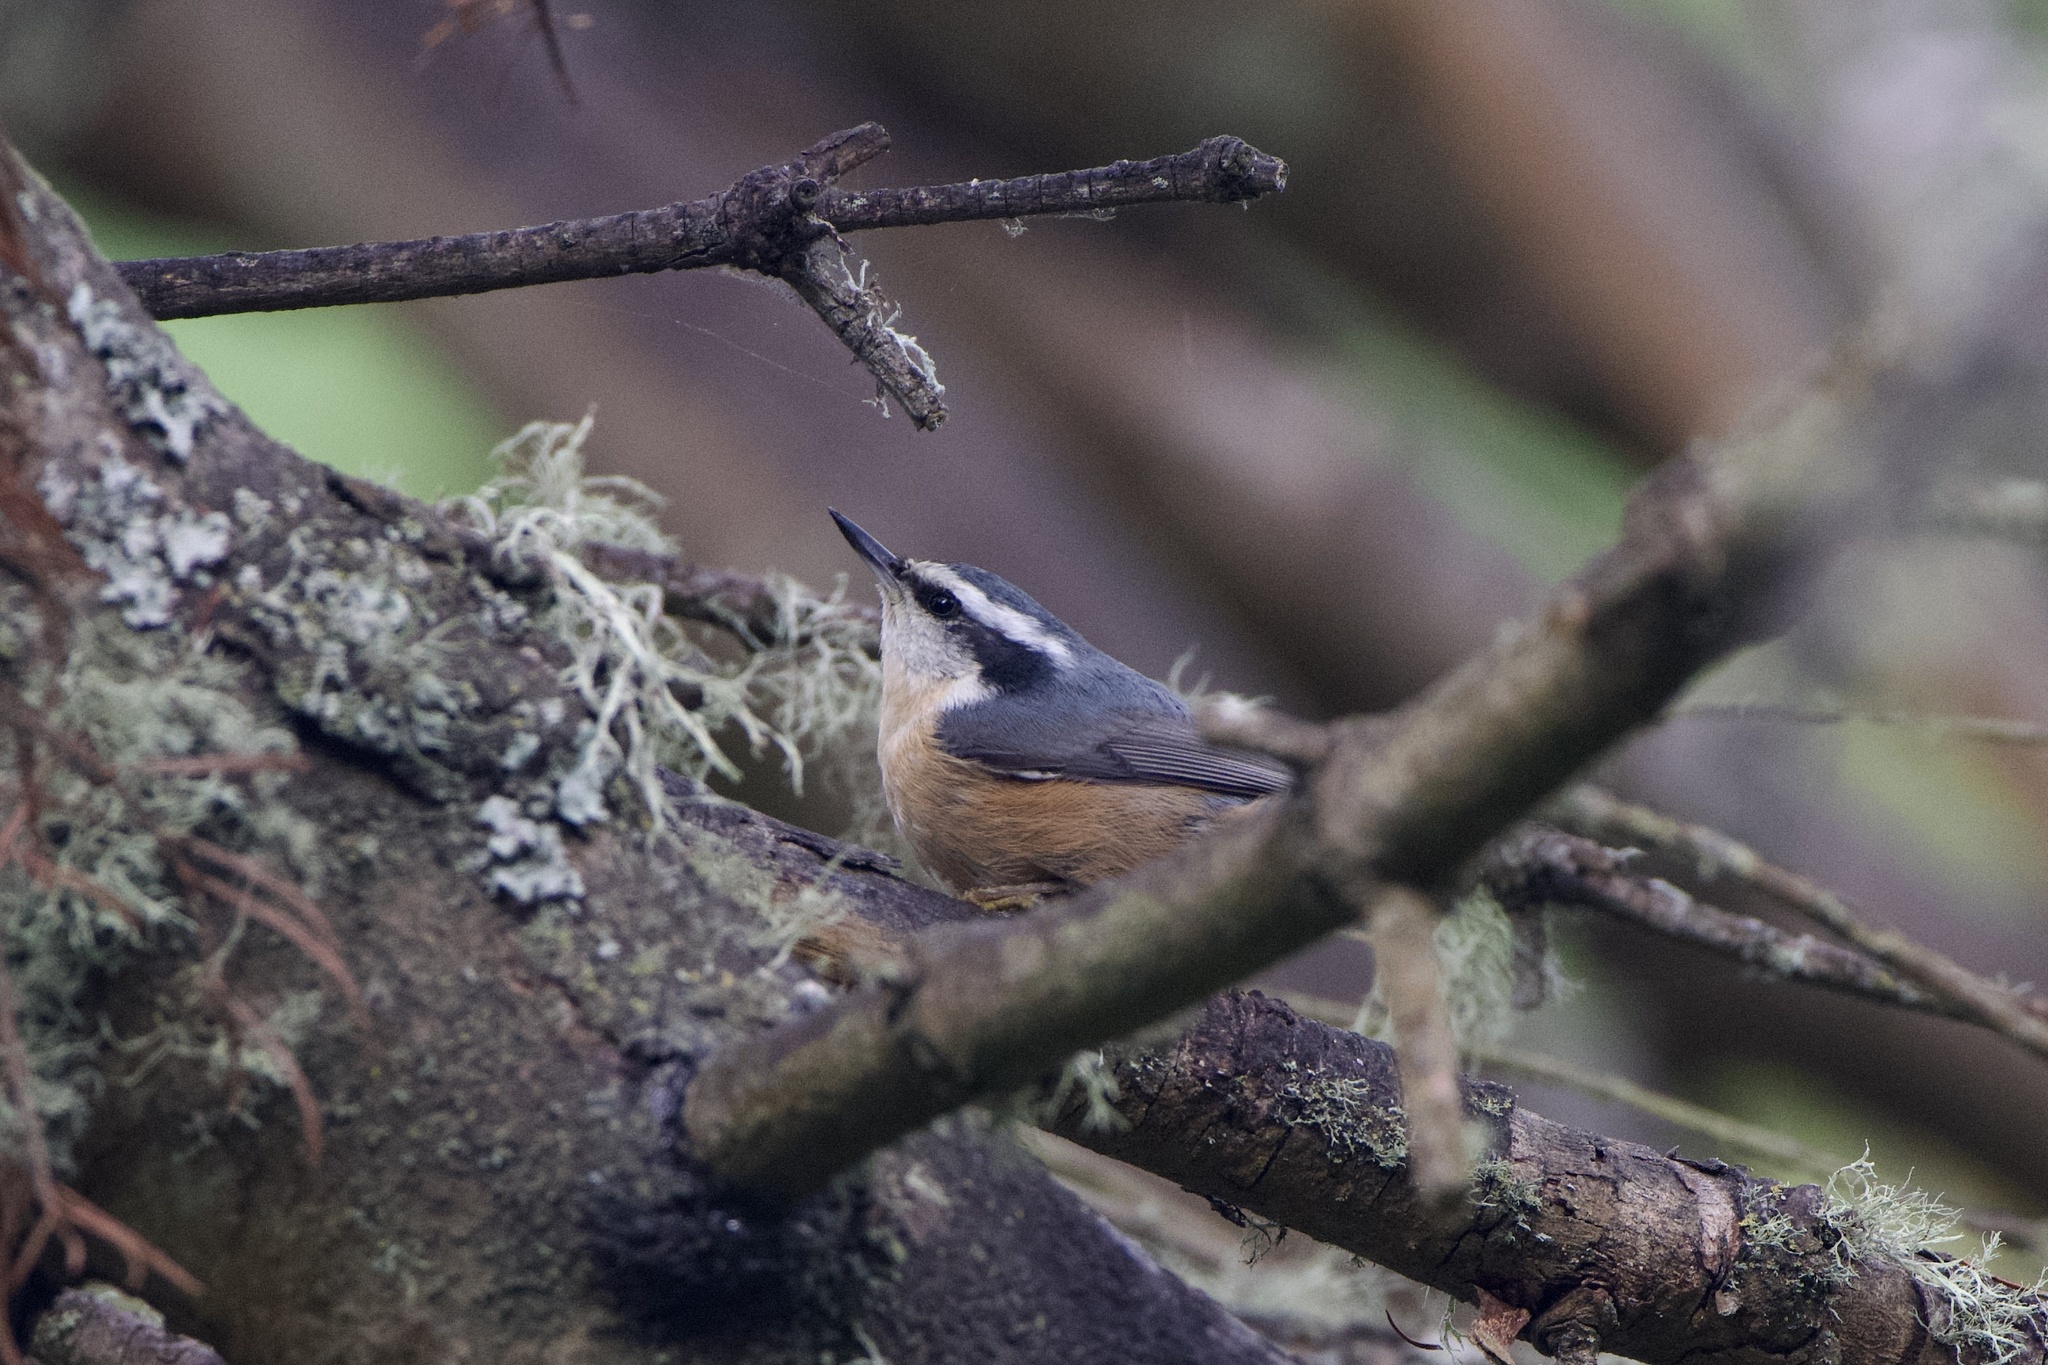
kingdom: Animalia
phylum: Chordata
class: Aves
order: Passeriformes
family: Sittidae
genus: Sitta
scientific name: Sitta canadensis
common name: Red-breasted nuthatch
